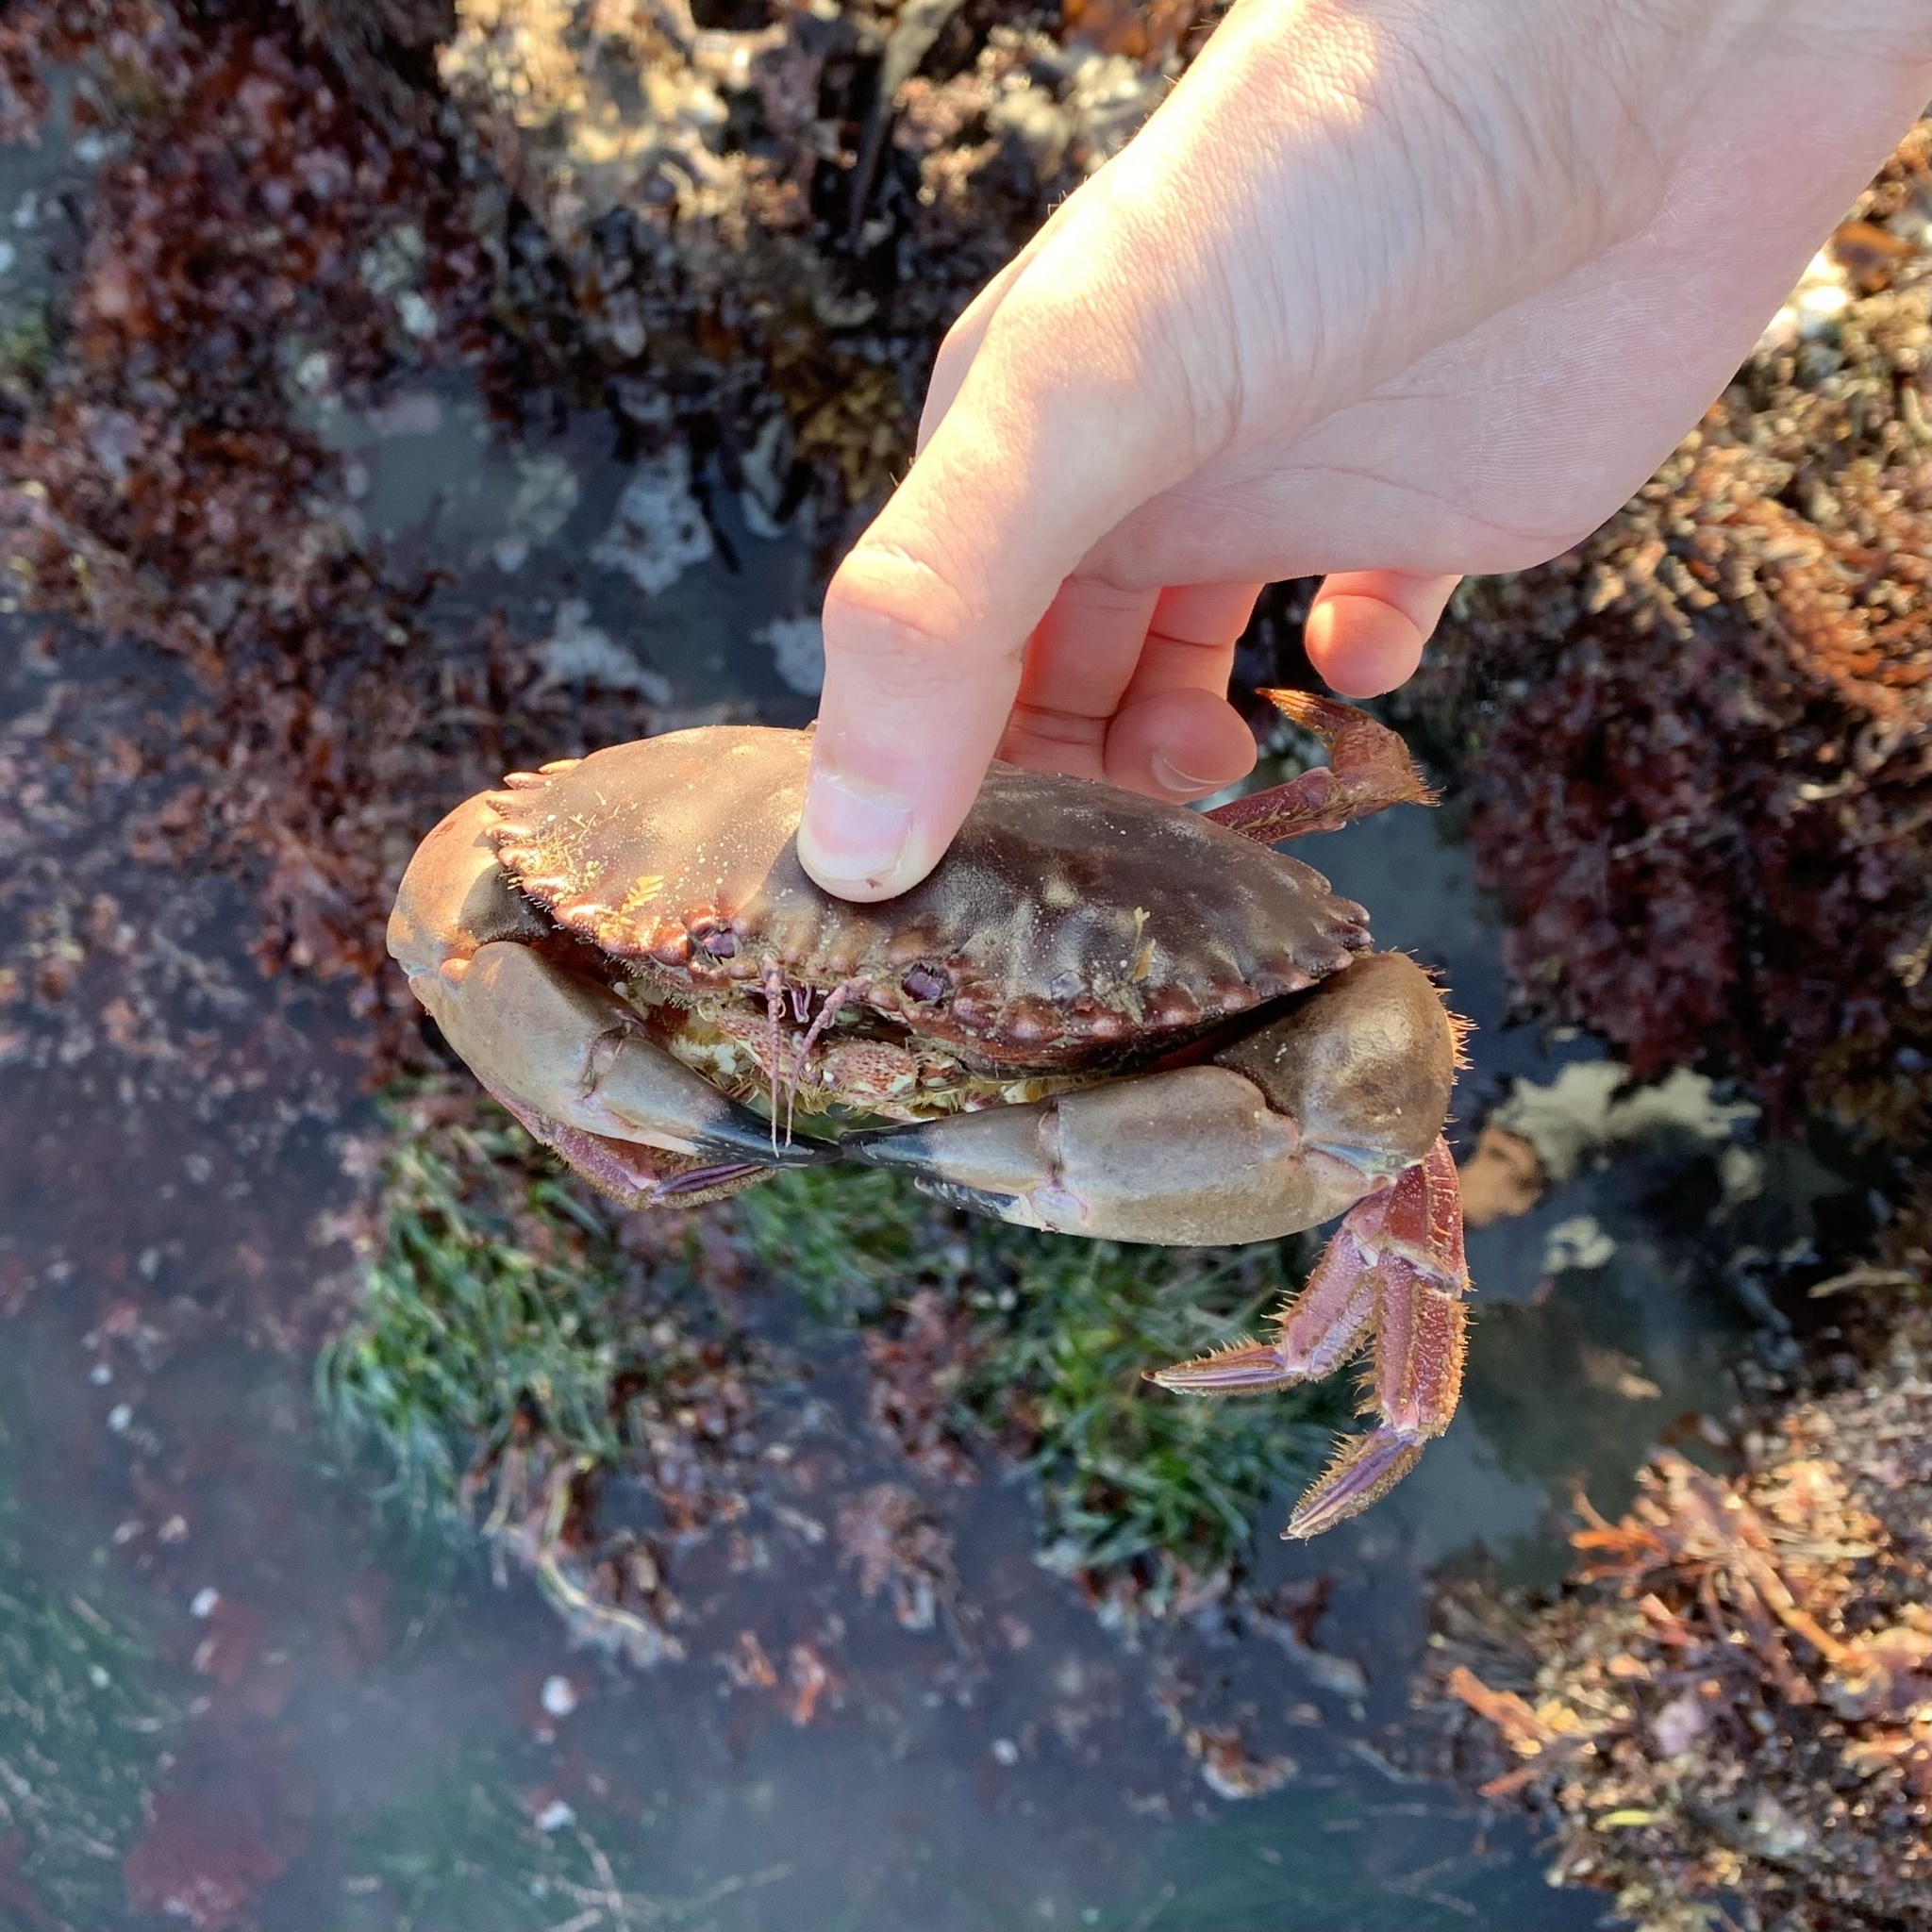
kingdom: Animalia
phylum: Arthropoda
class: Malacostraca
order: Decapoda
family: Cancridae
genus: Romaleon
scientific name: Romaleon antennarium
